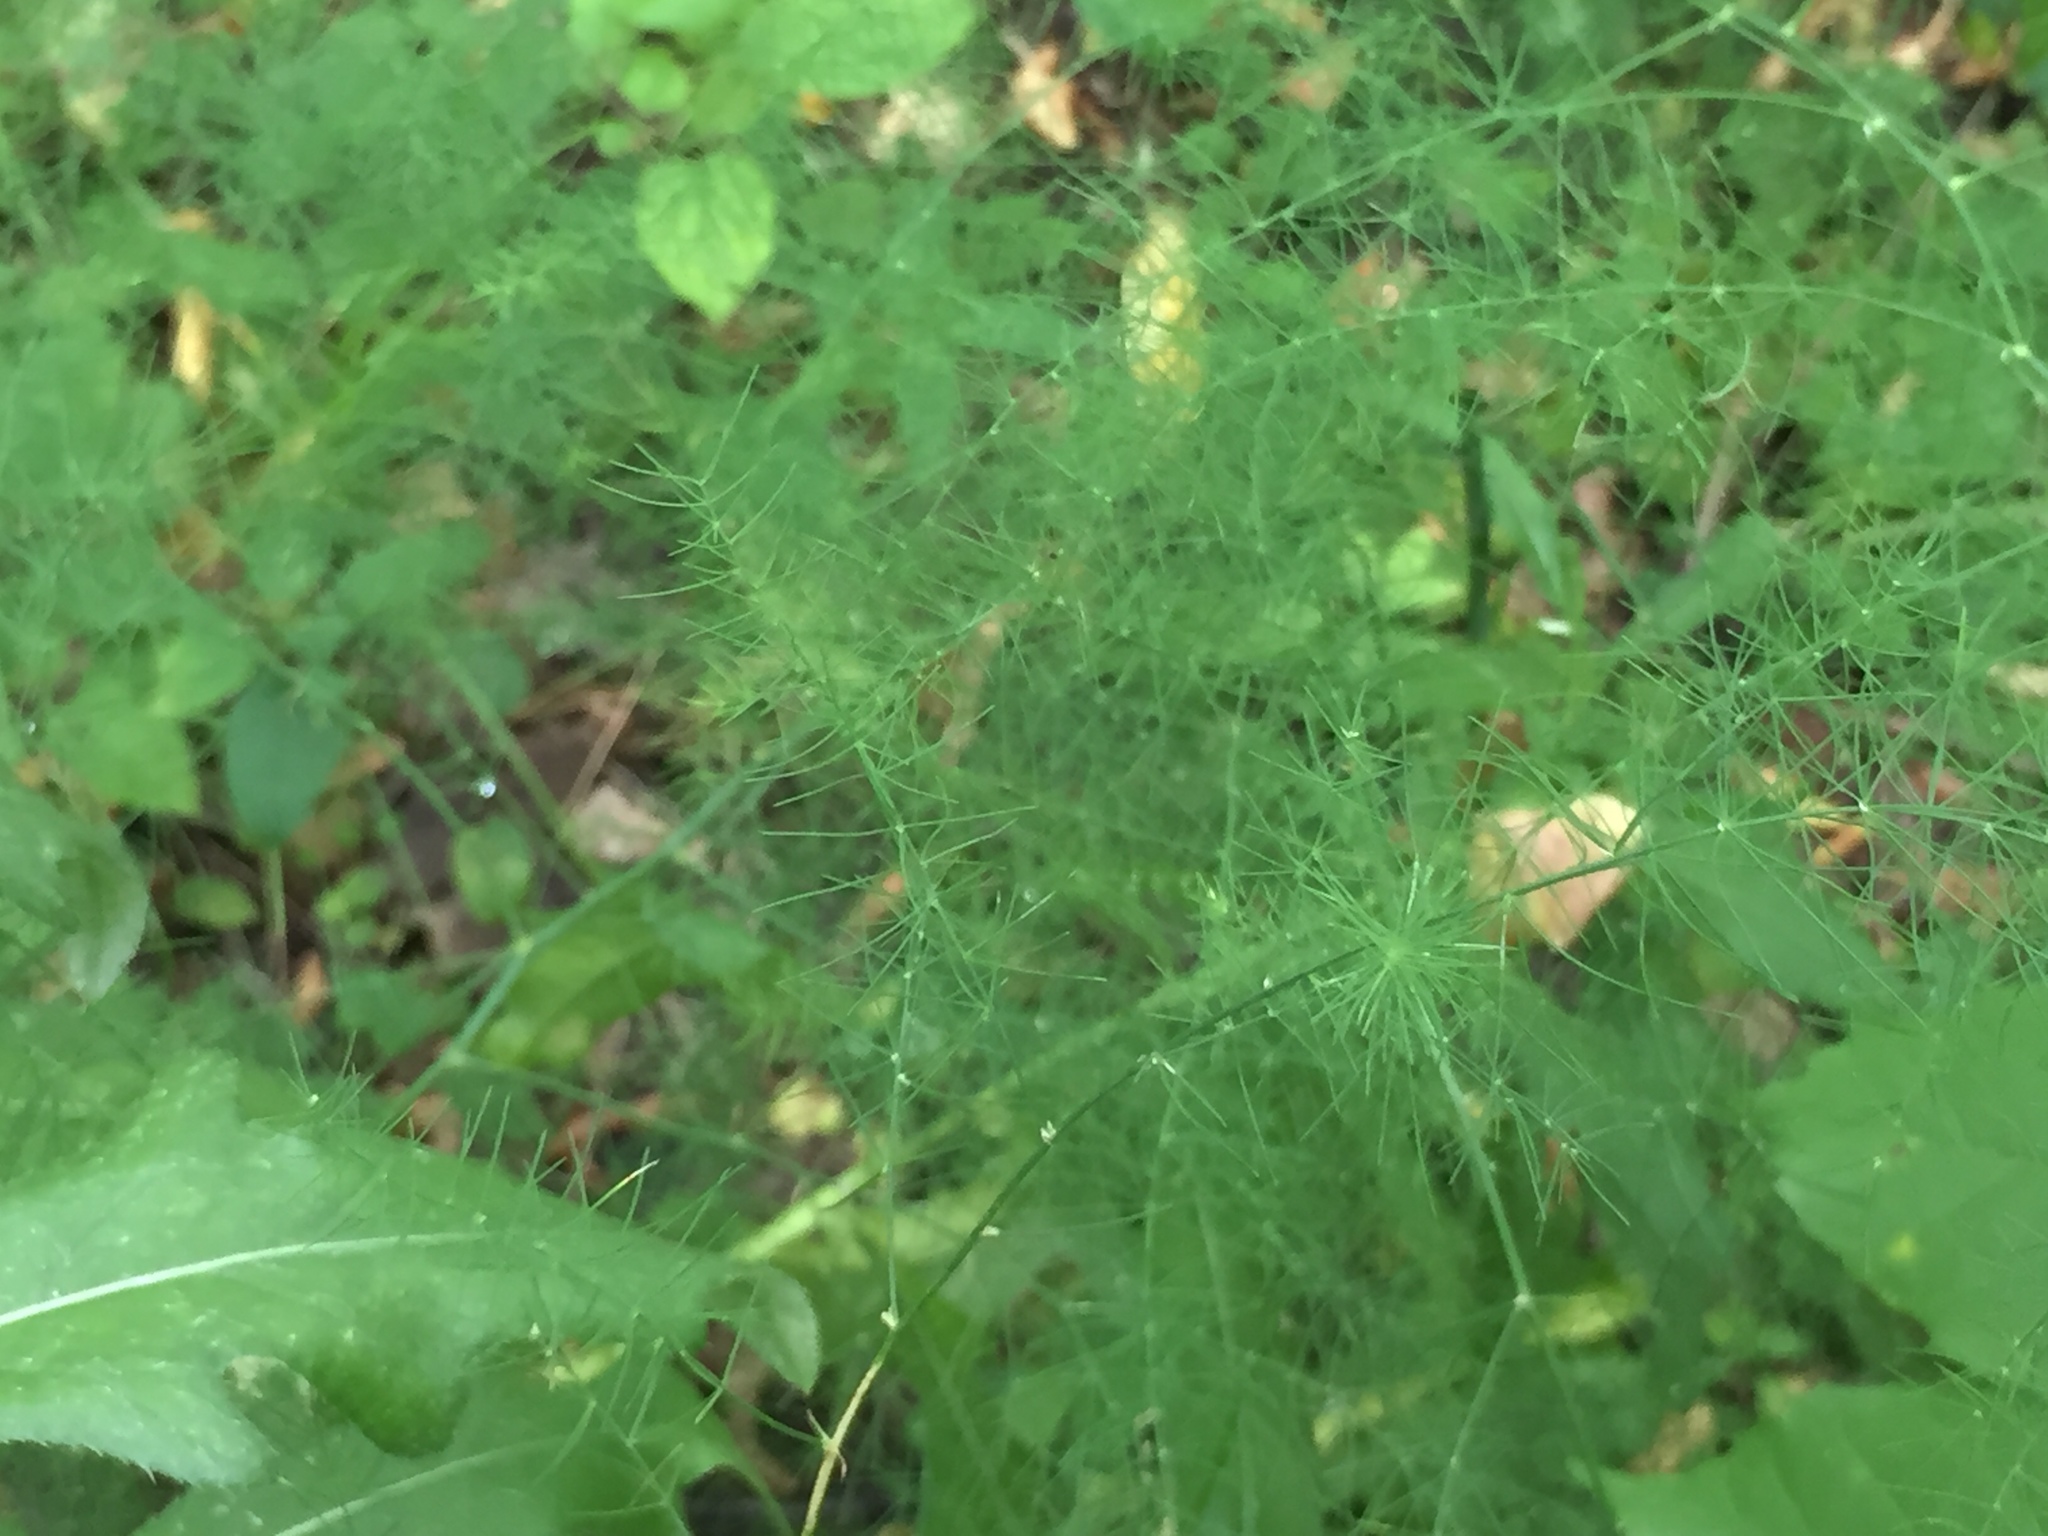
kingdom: Plantae
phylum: Tracheophyta
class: Liliopsida
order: Asparagales
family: Asparagaceae
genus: Asparagus
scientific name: Asparagus officinalis
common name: Garden asparagus
